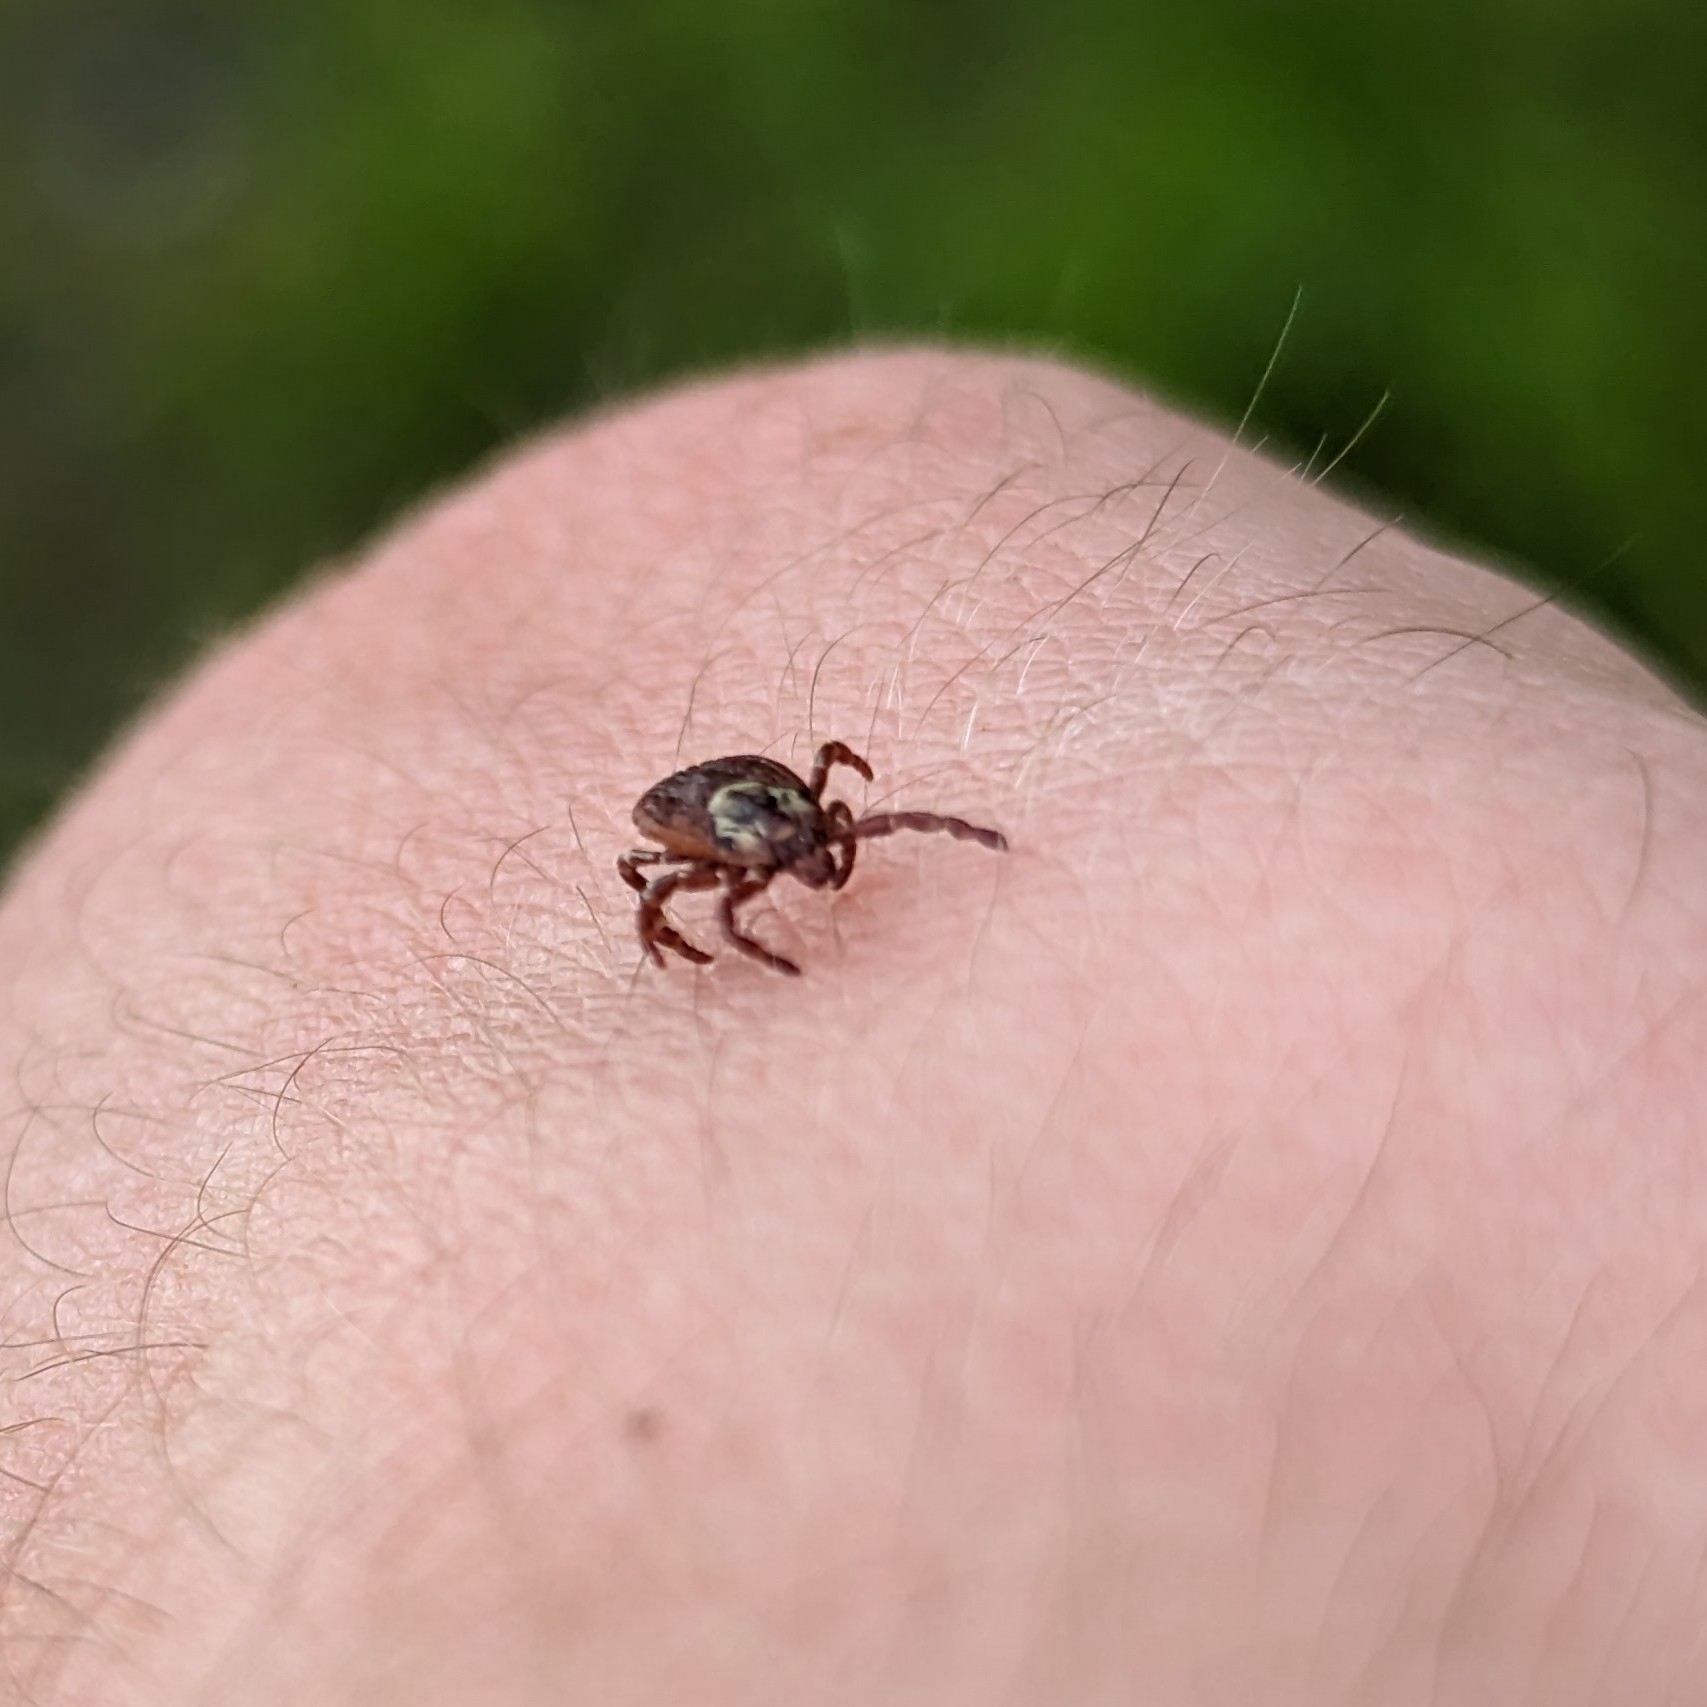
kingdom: Animalia
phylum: Arthropoda
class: Arachnida
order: Ixodida
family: Ixodidae
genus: Dermacentor
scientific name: Dermacentor variabilis
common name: American dog tick
